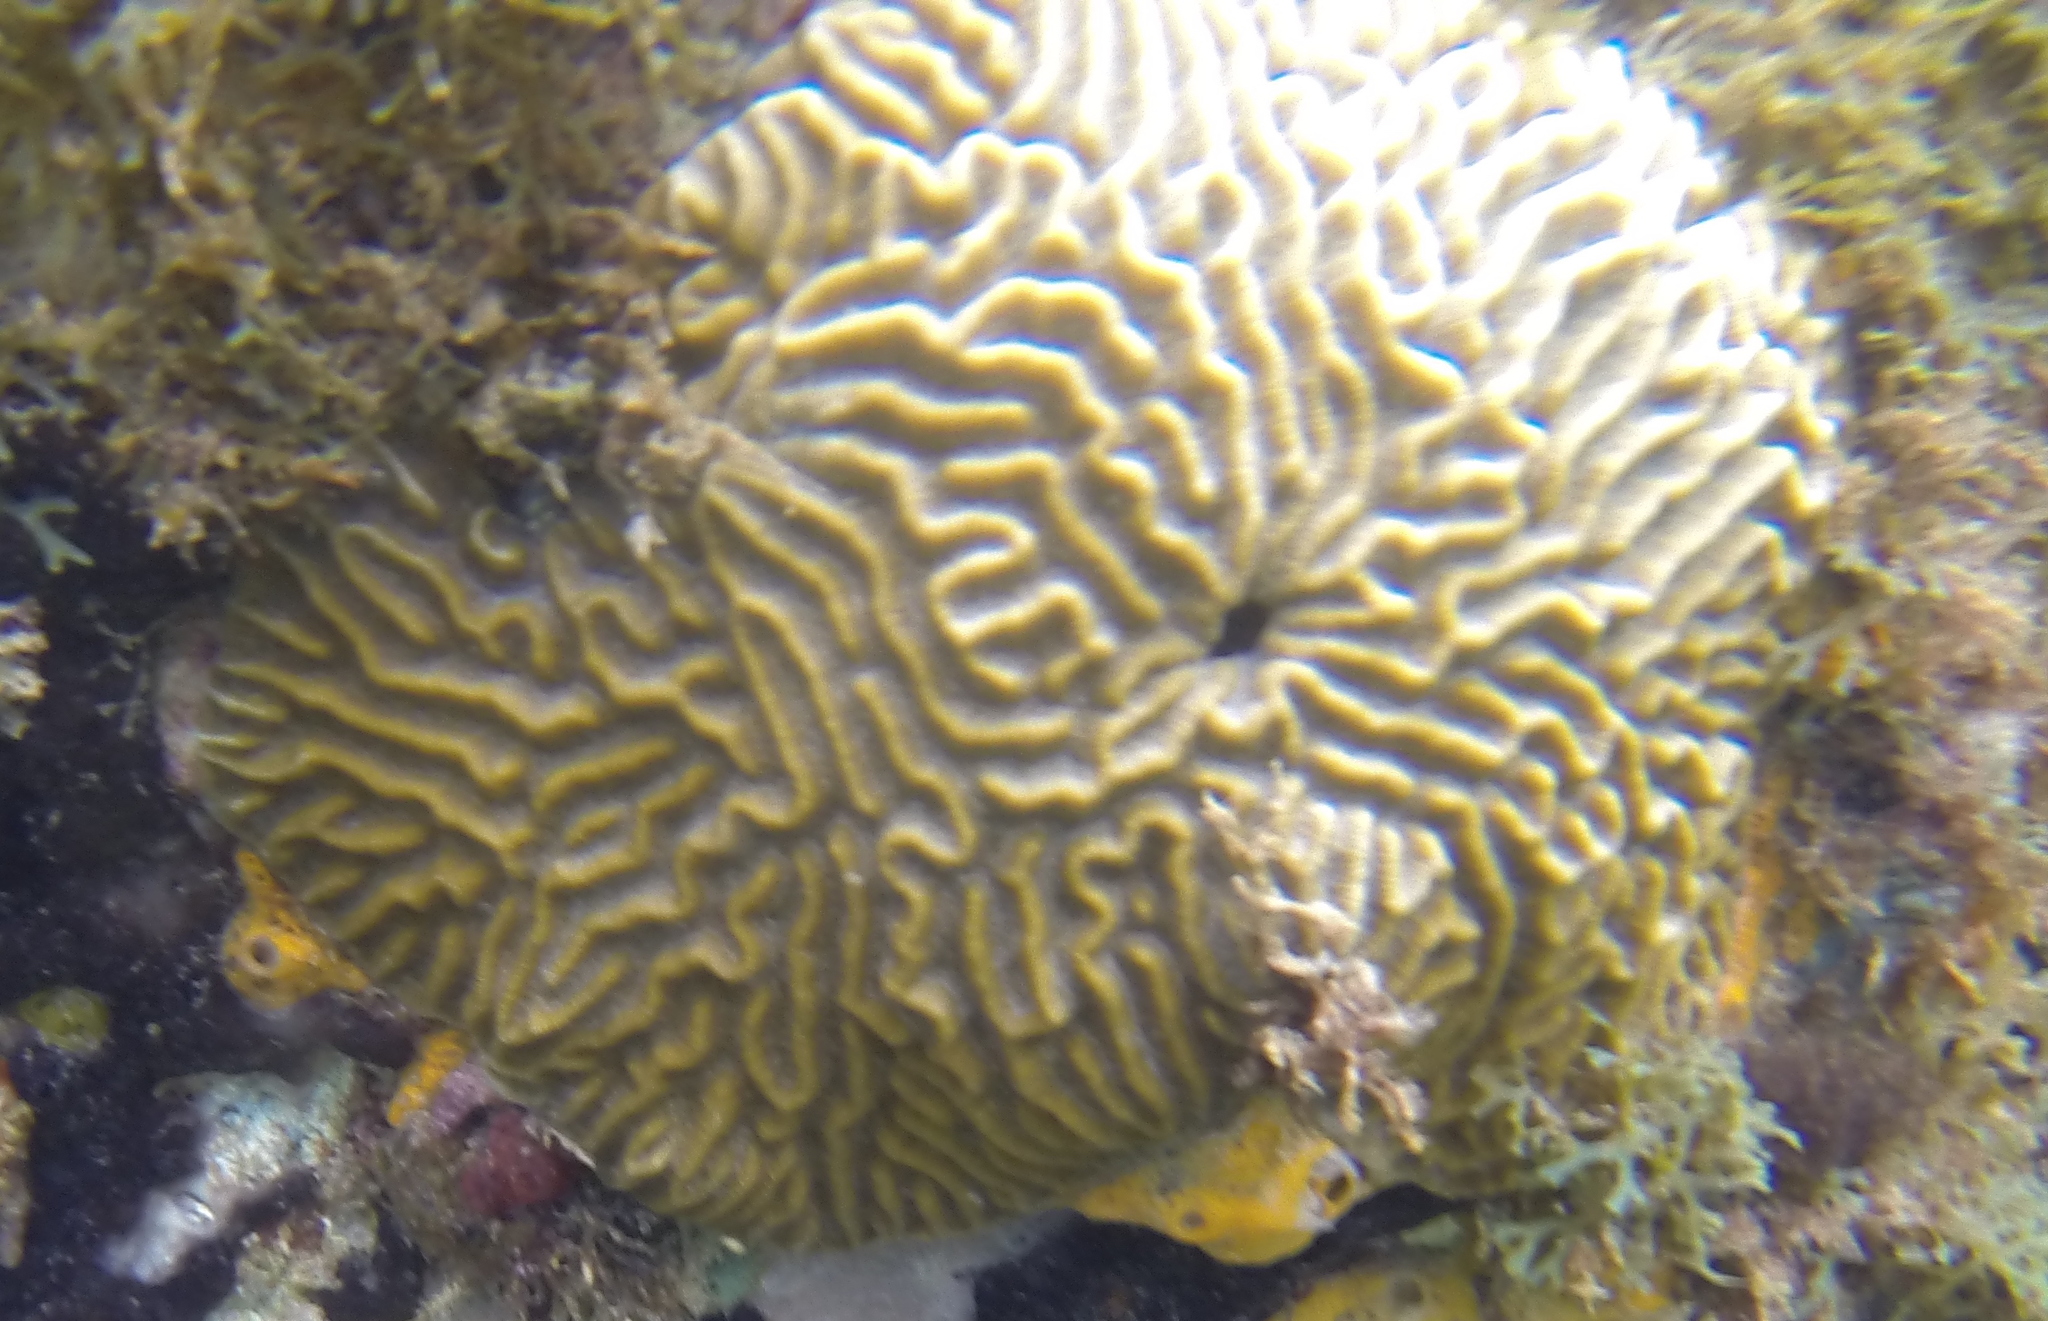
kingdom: Animalia
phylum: Cnidaria
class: Anthozoa
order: Scleractinia
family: Faviidae
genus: Pseudodiploria
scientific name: Pseudodiploria strigosa
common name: Symmetrical brain coral
